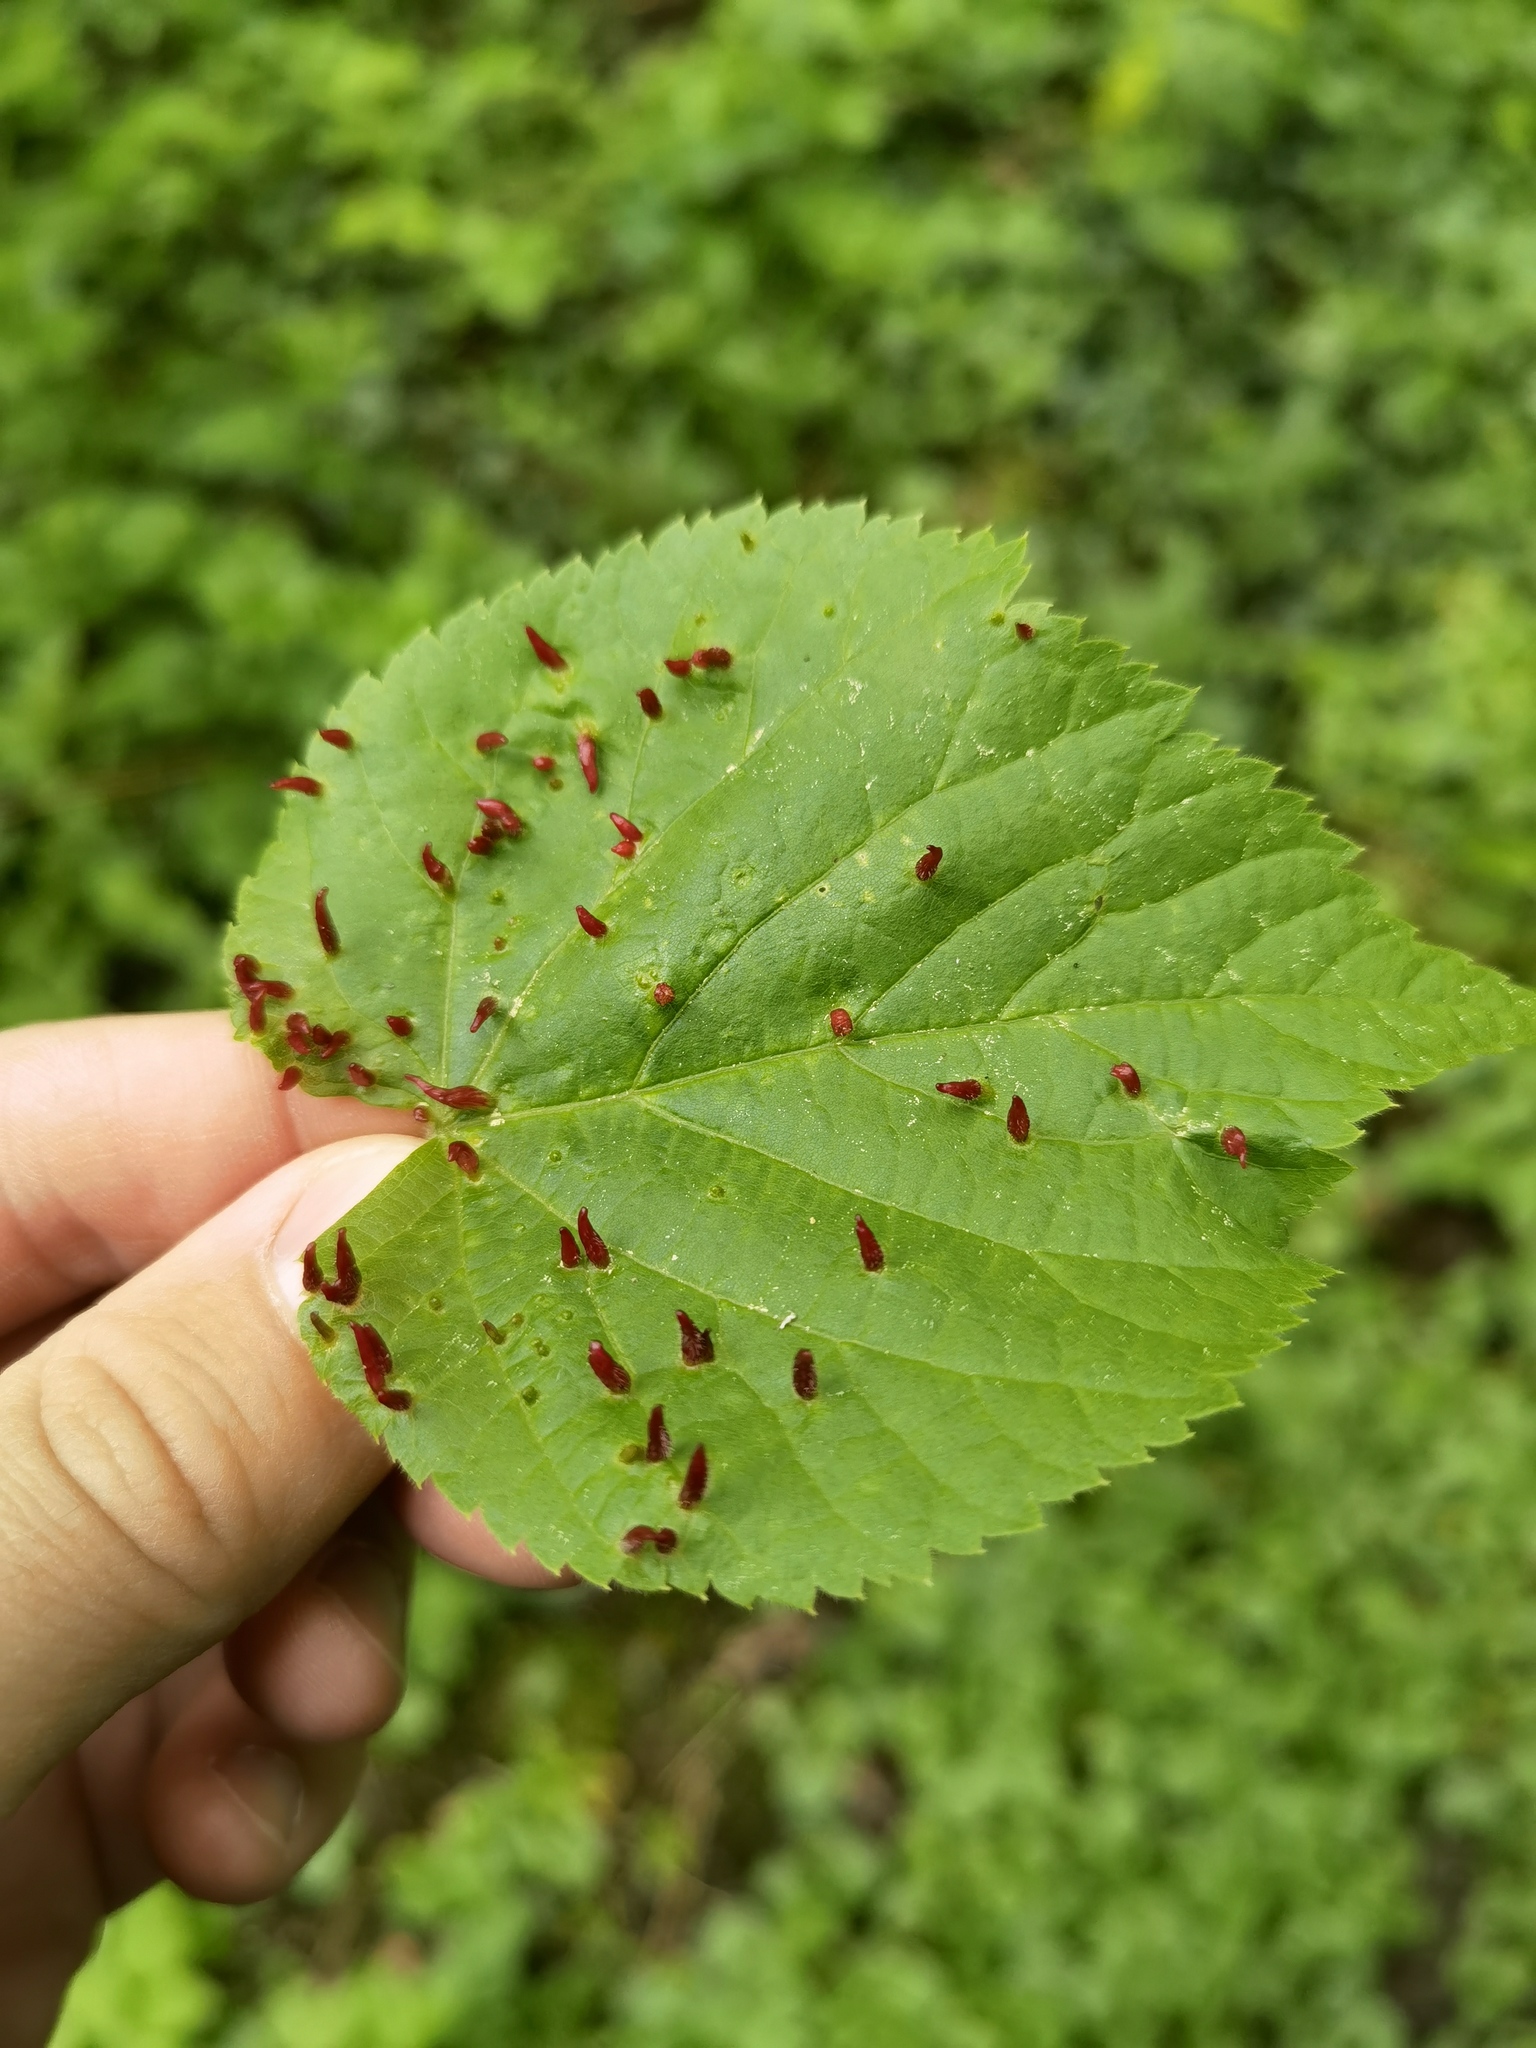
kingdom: Animalia
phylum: Arthropoda
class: Arachnida
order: Trombidiformes
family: Eriophyidae
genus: Eriophyes
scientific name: Eriophyes tiliae
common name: Red nail gall mite
